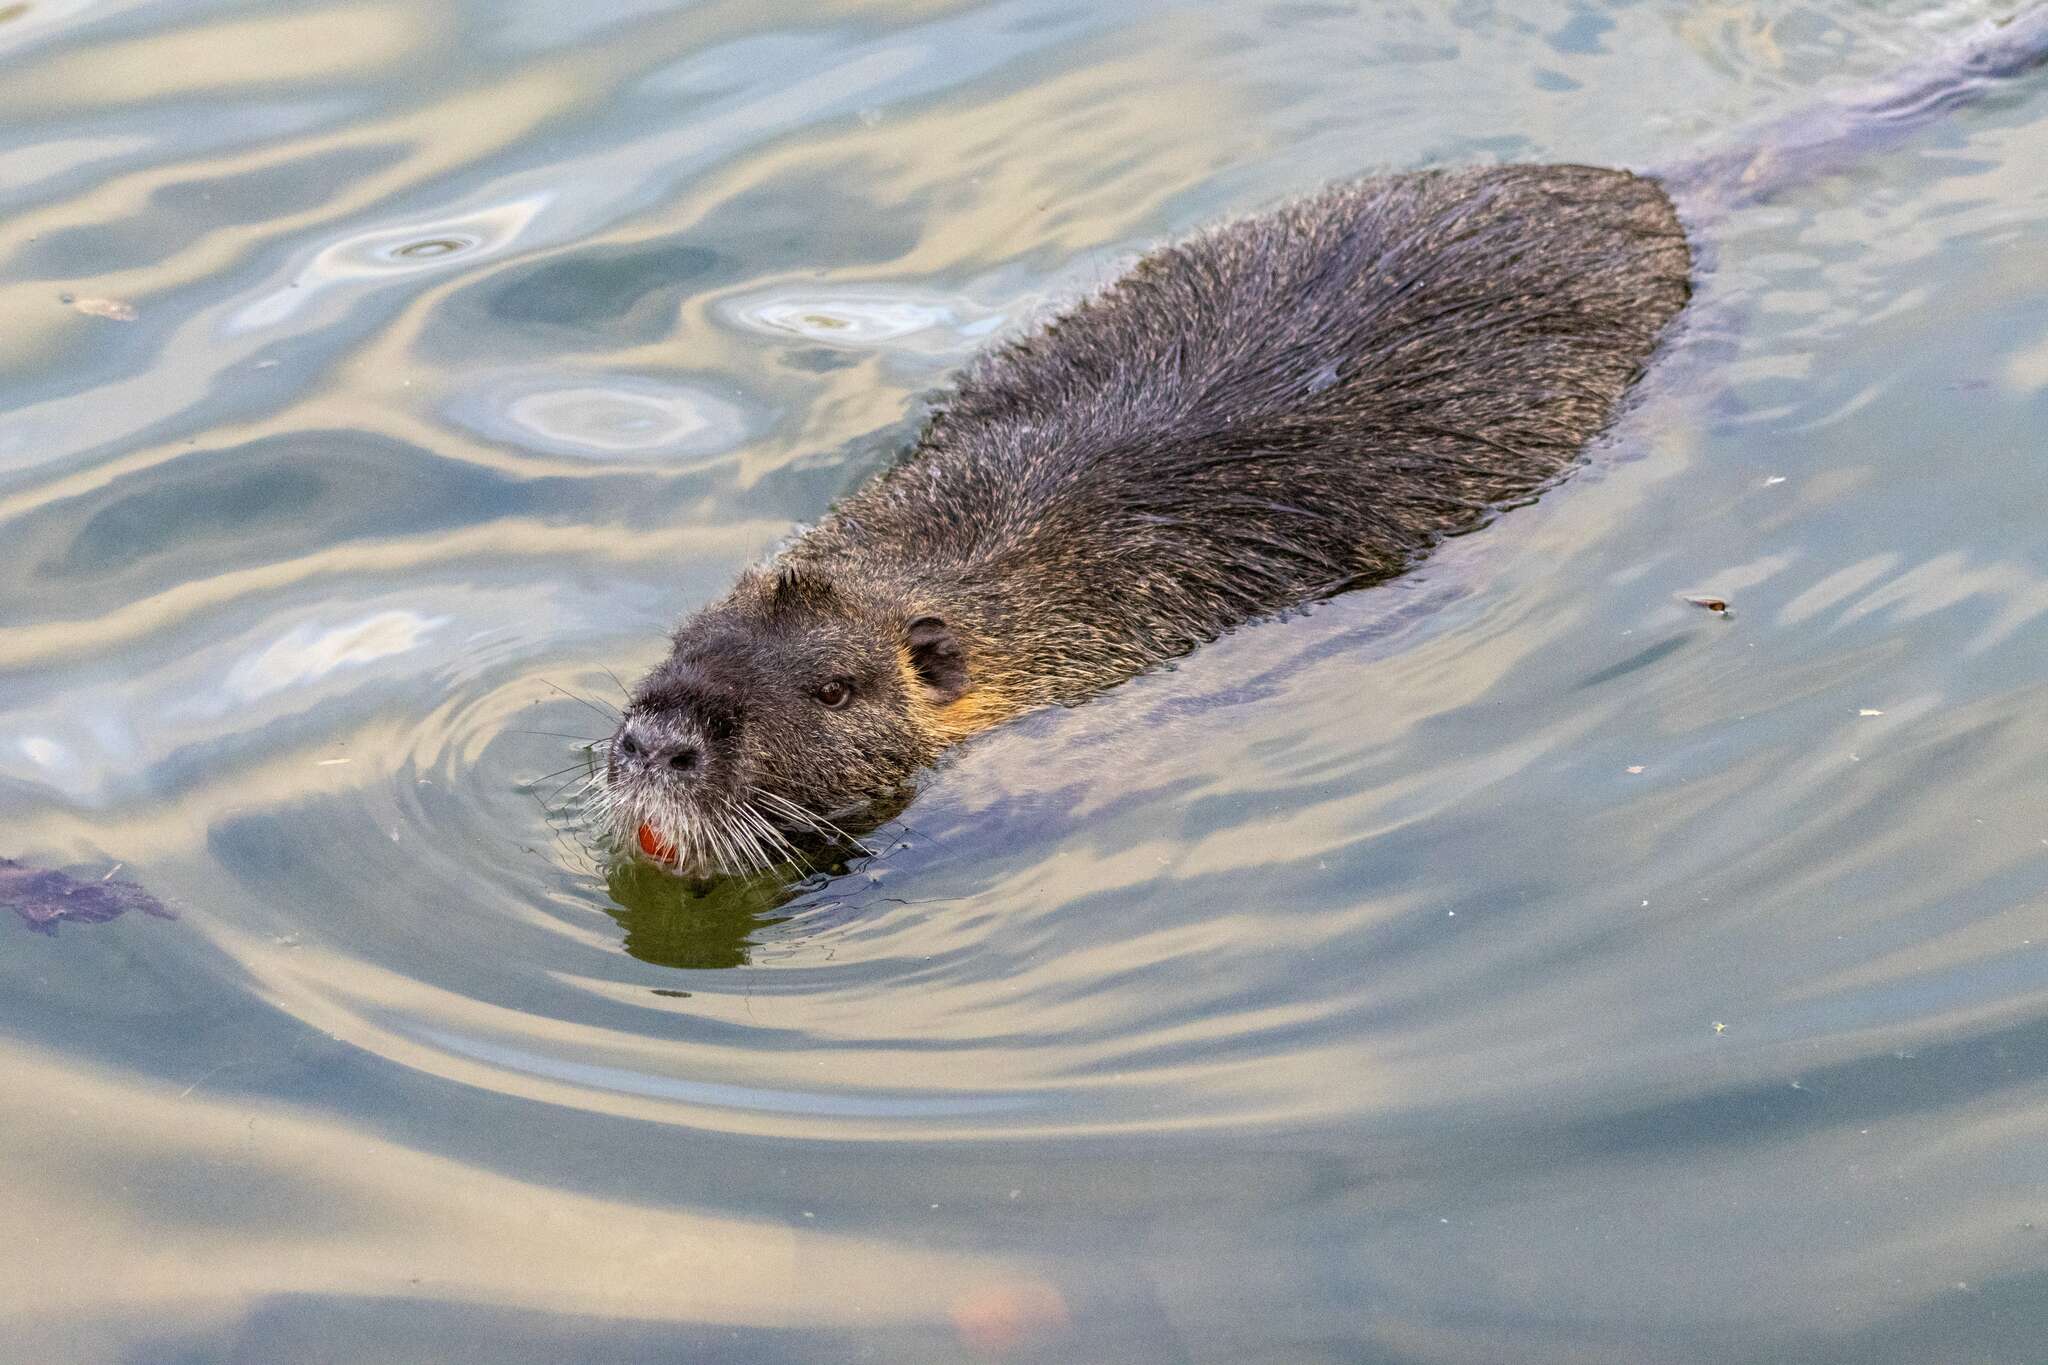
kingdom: Animalia
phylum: Chordata
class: Mammalia
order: Rodentia
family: Myocastoridae
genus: Myocastor
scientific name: Myocastor coypus
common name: Coypu
